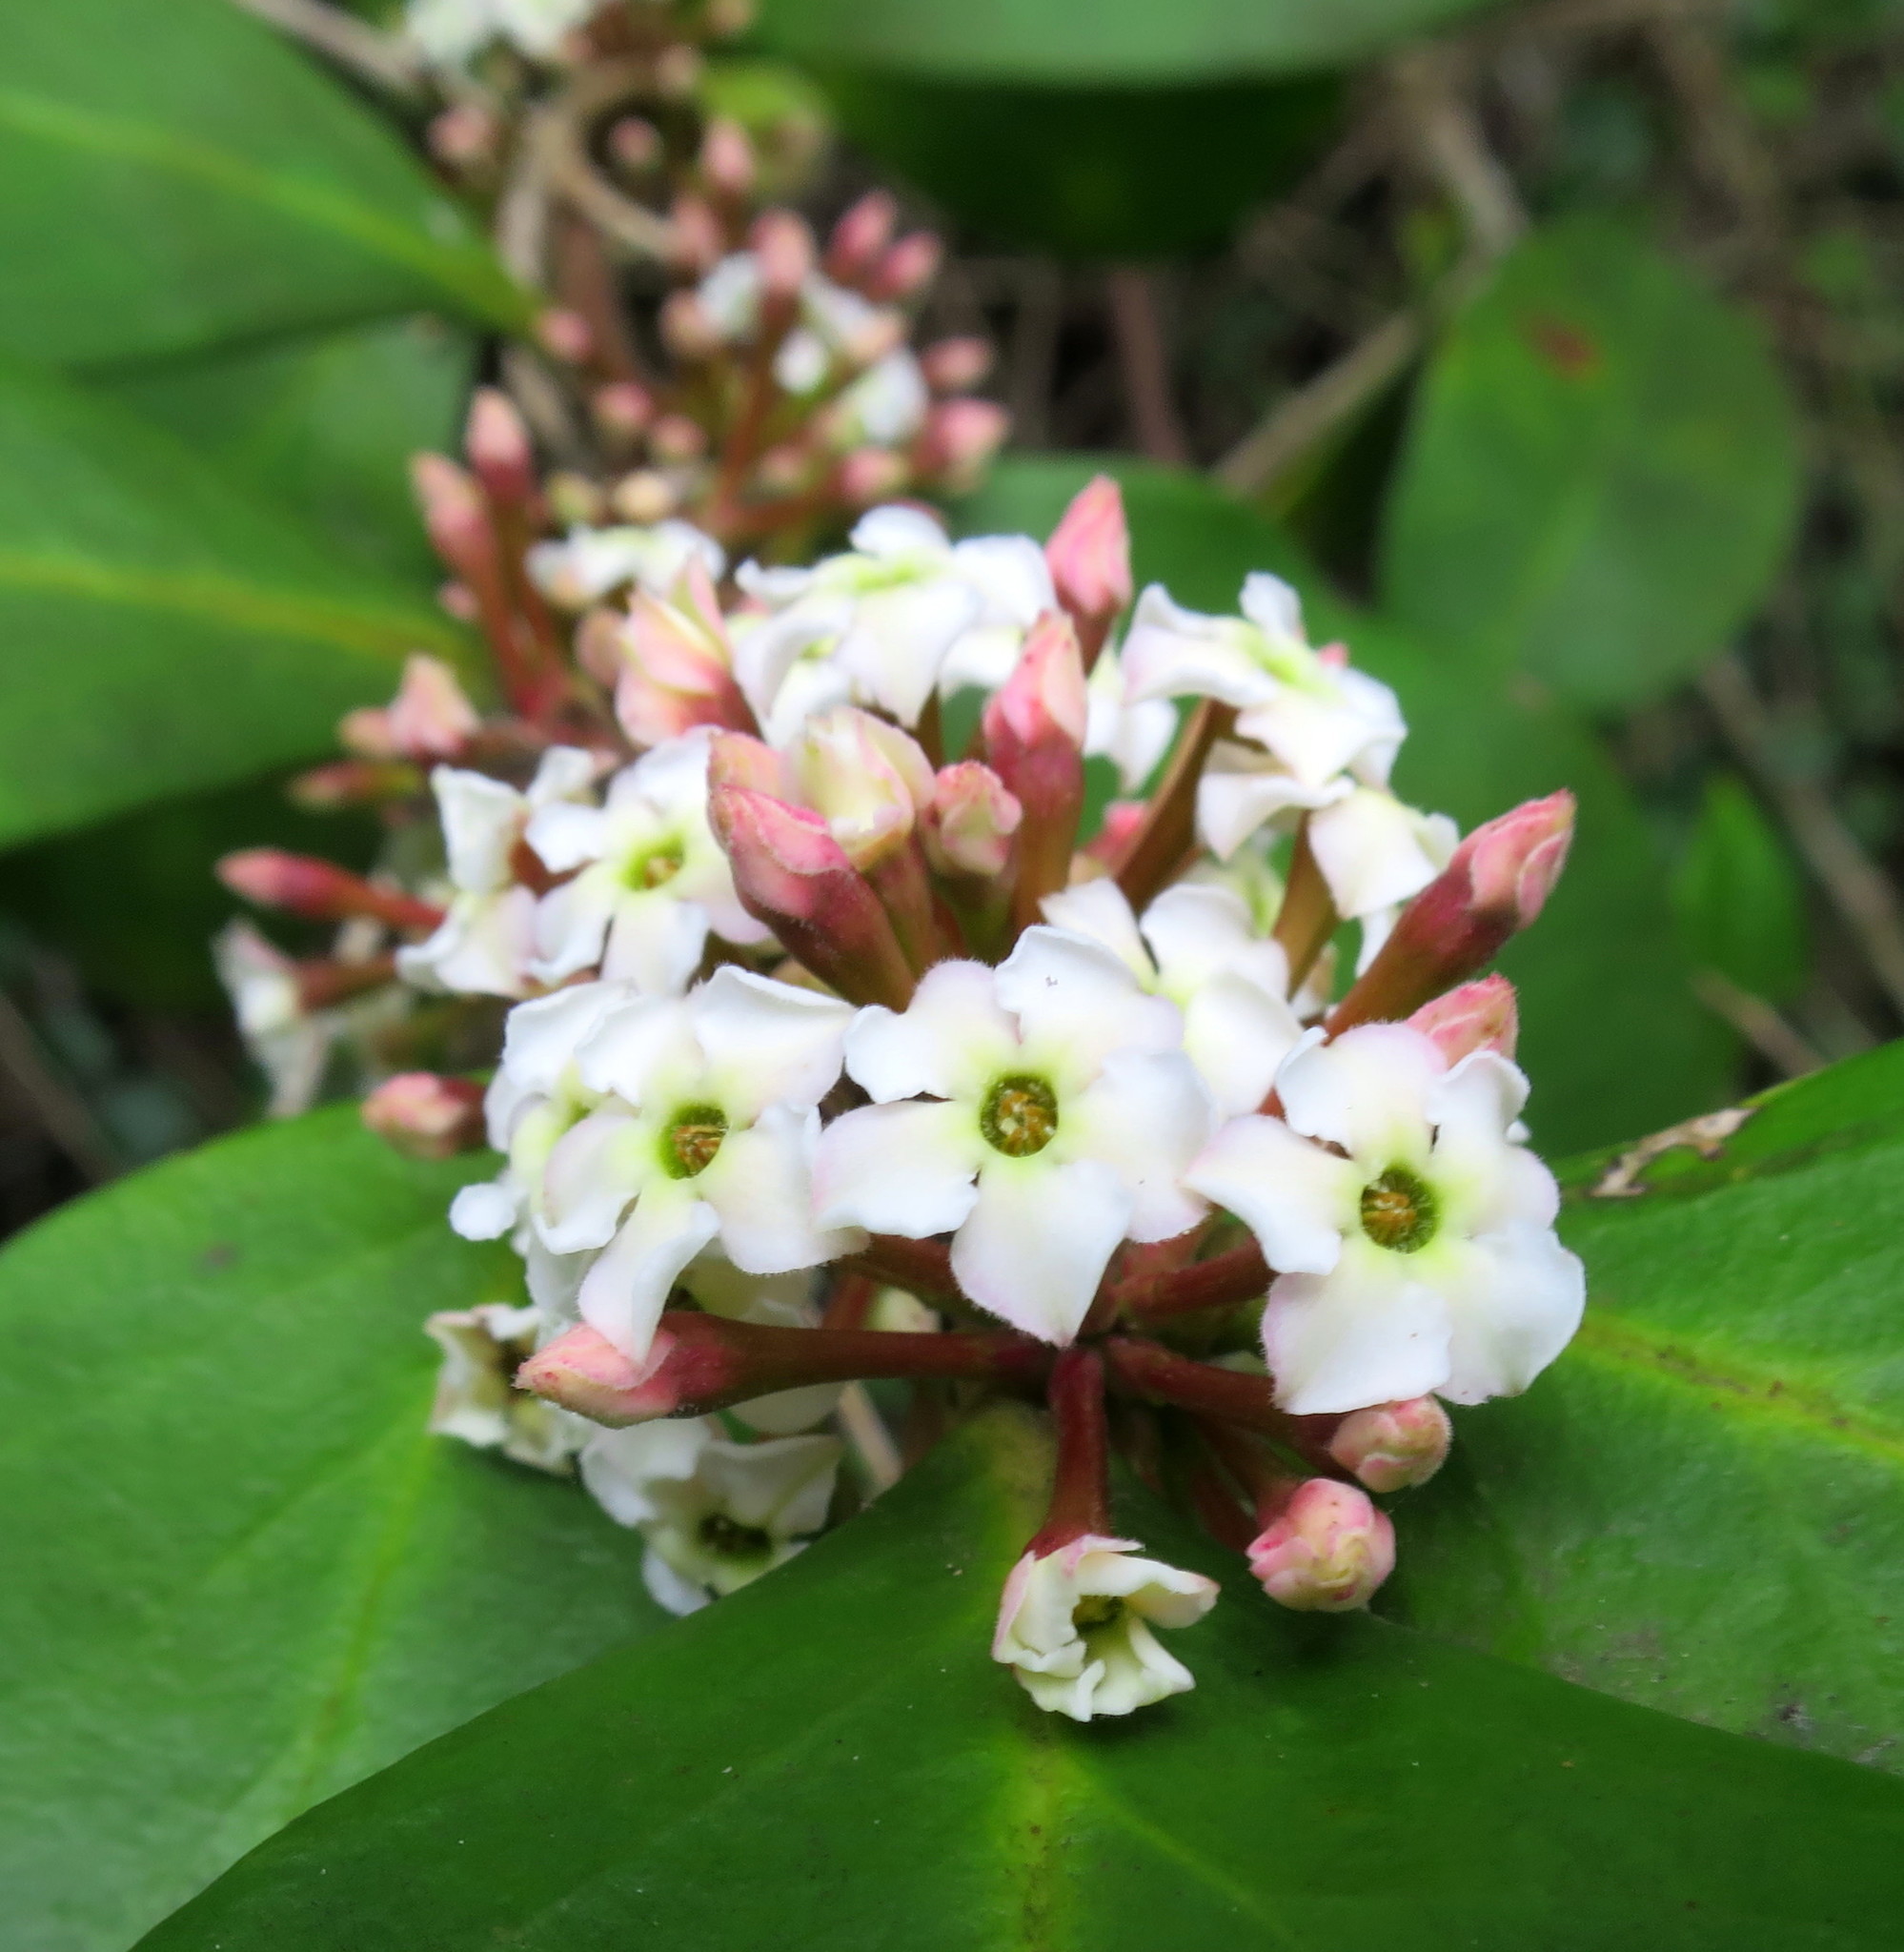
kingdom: Plantae
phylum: Tracheophyta
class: Magnoliopsida
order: Gentianales
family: Apocynaceae
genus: Acokanthera
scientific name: Acokanthera oppositifolia
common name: Bushman's-poison
